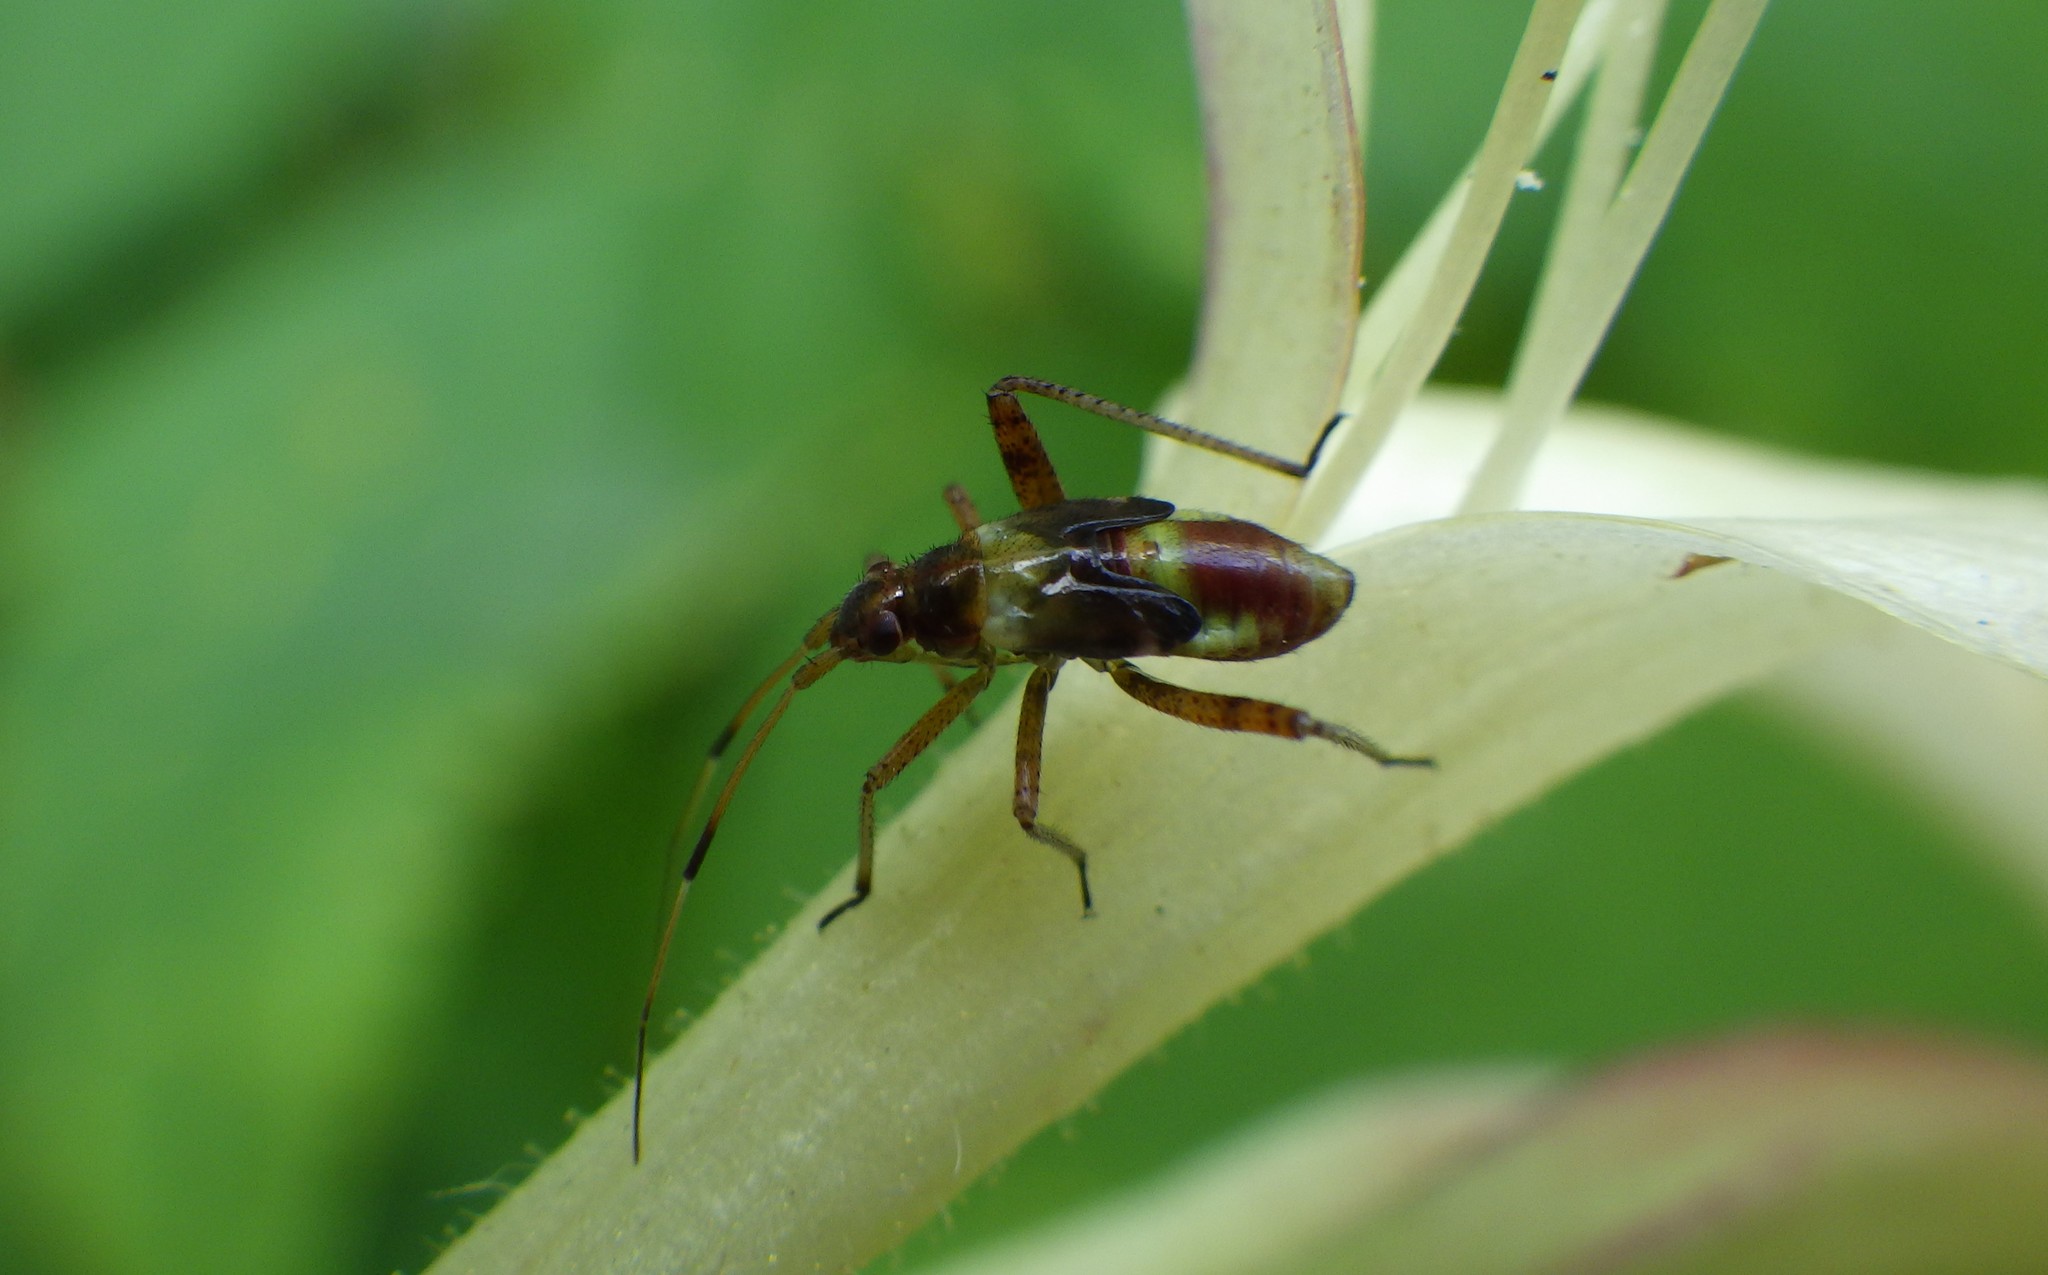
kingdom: Animalia
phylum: Arthropoda
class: Insecta
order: Hemiptera
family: Miridae
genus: Closterotomus
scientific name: Closterotomus fulvomaculatus
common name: Spotted plant bug
